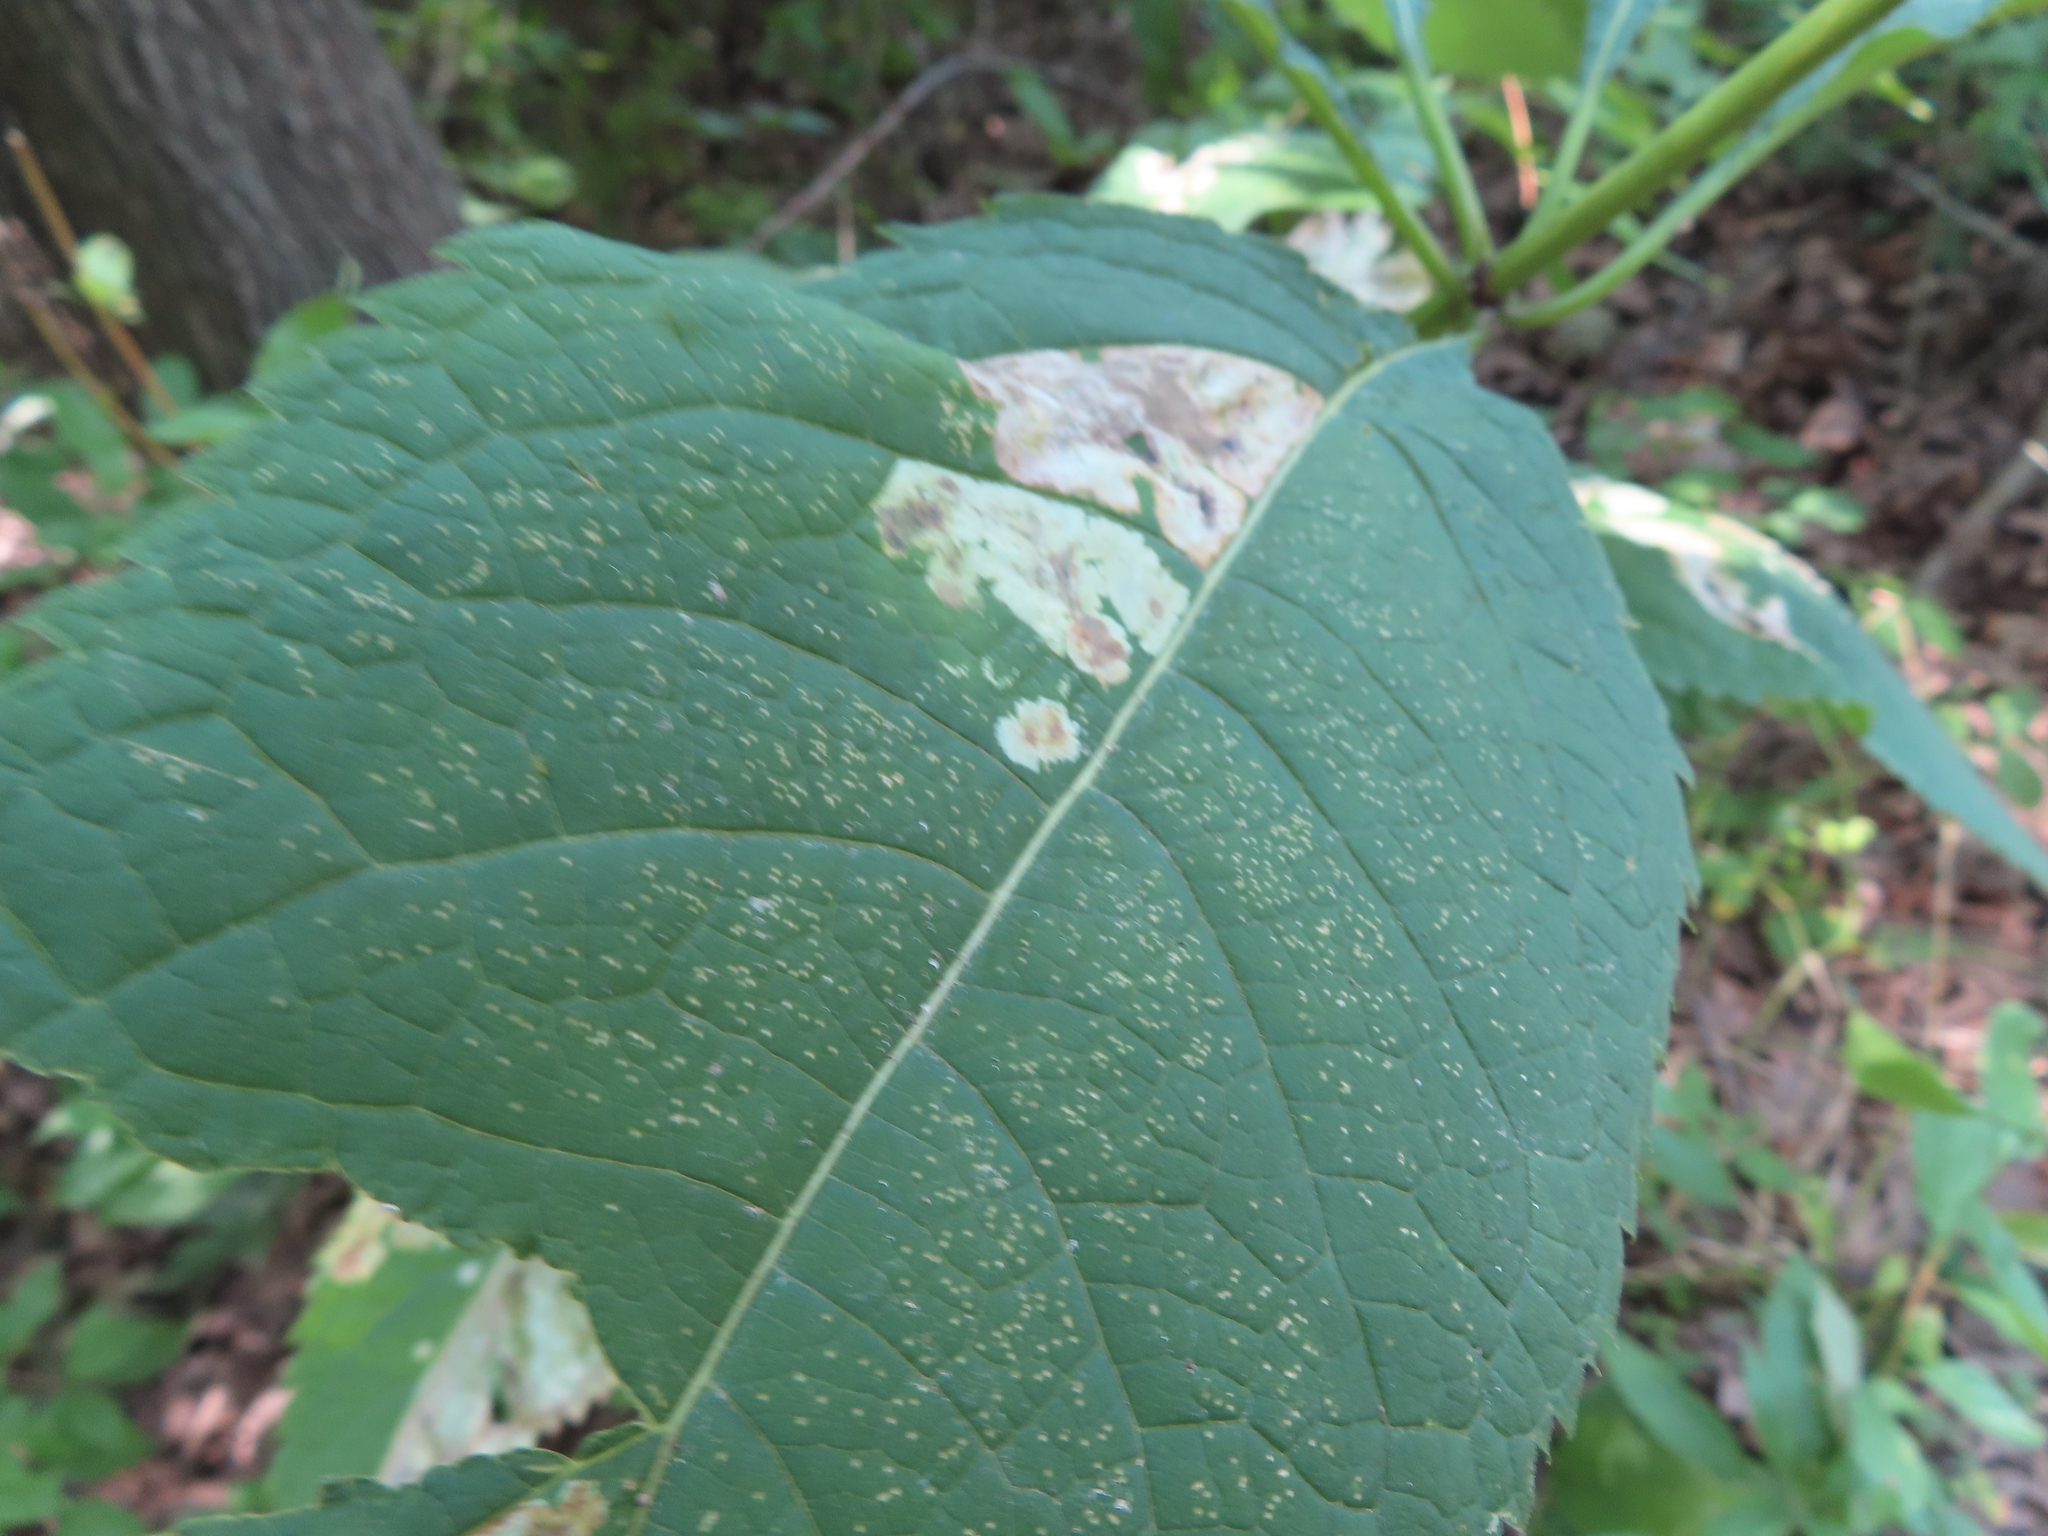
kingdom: Animalia
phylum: Arthropoda
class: Insecta
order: Diptera
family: Agromyzidae
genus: Calycomyza
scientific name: Calycomyza flavinotum
